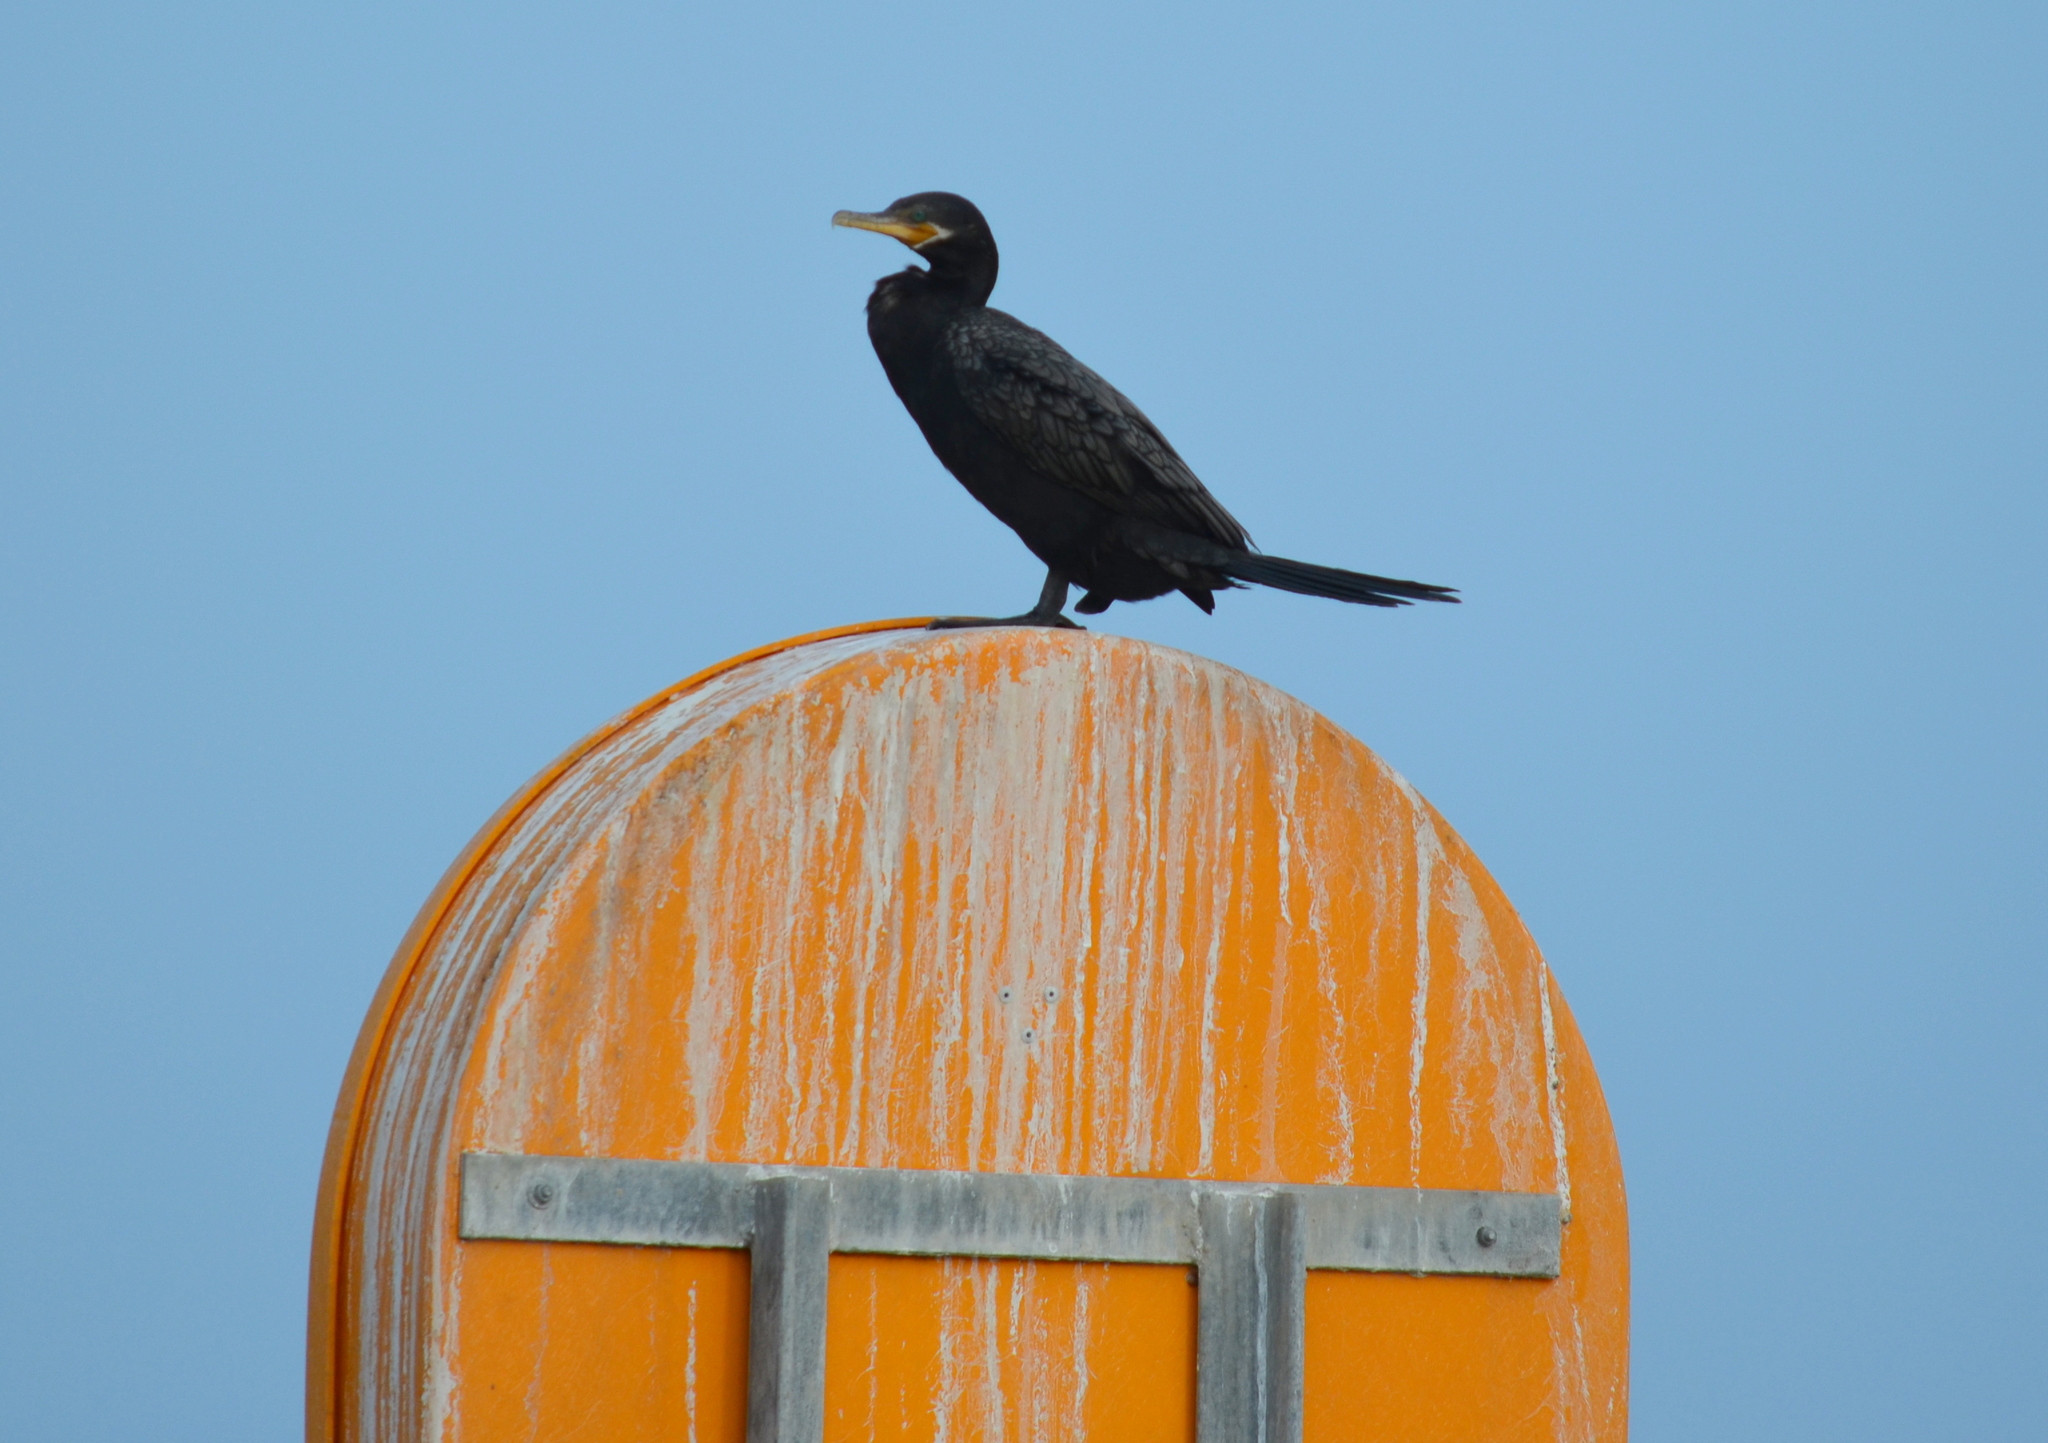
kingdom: Animalia
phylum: Chordata
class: Aves
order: Suliformes
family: Phalacrocoracidae
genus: Phalacrocorax
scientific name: Phalacrocorax brasilianus
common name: Neotropic cormorant
